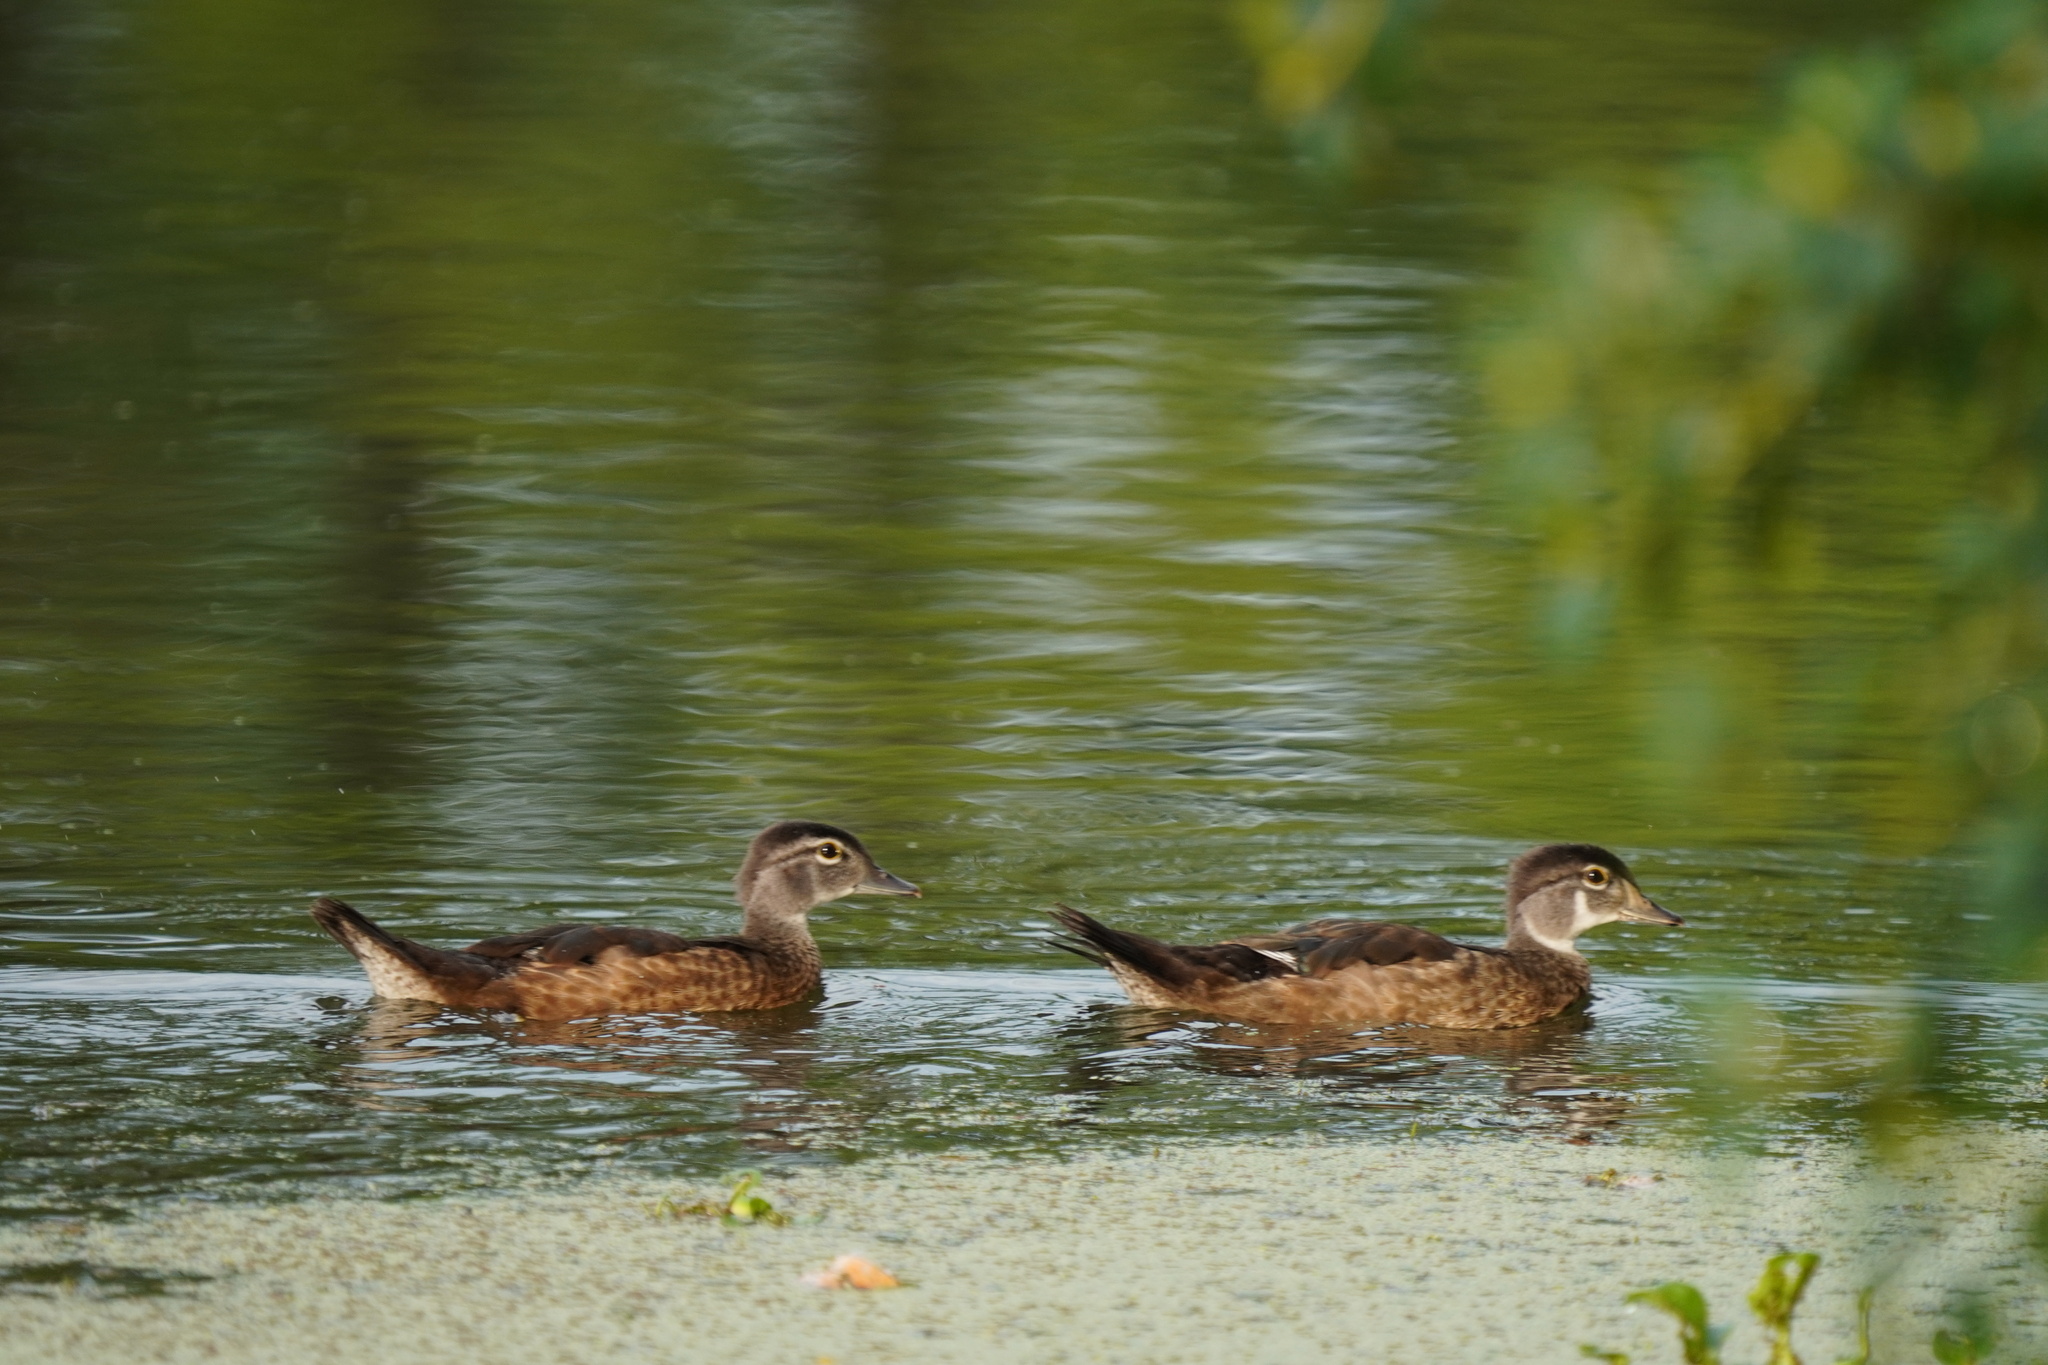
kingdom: Animalia
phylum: Chordata
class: Aves
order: Anseriformes
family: Anatidae
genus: Aix
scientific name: Aix sponsa
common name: Wood duck
